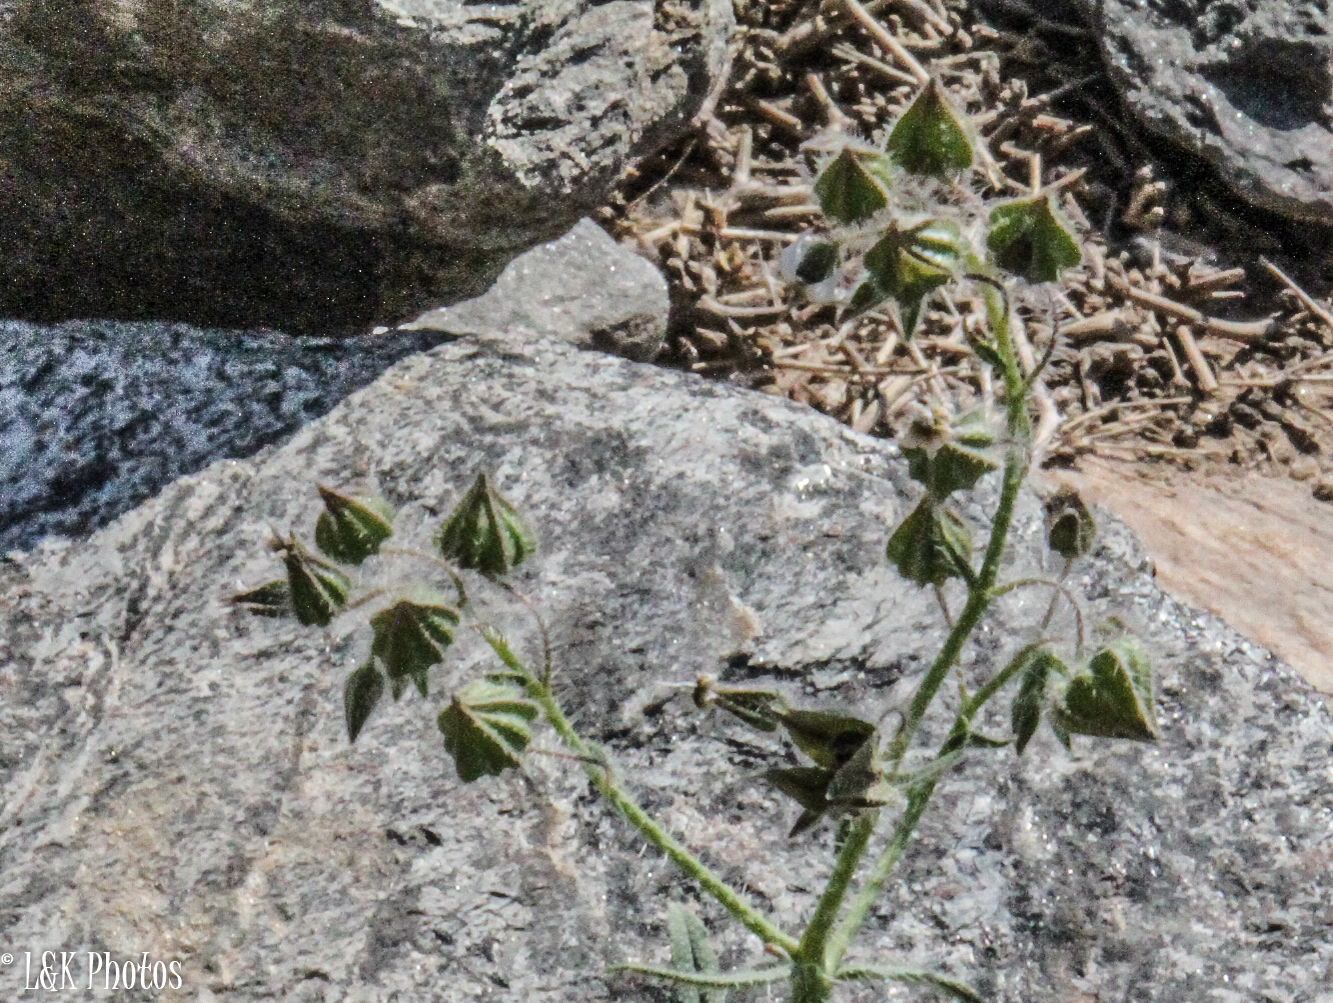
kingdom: Plantae
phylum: Tracheophyta
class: Magnoliopsida
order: Boraginales
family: Boraginaceae
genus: Trichodesma
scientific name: Trichodesma africanum
